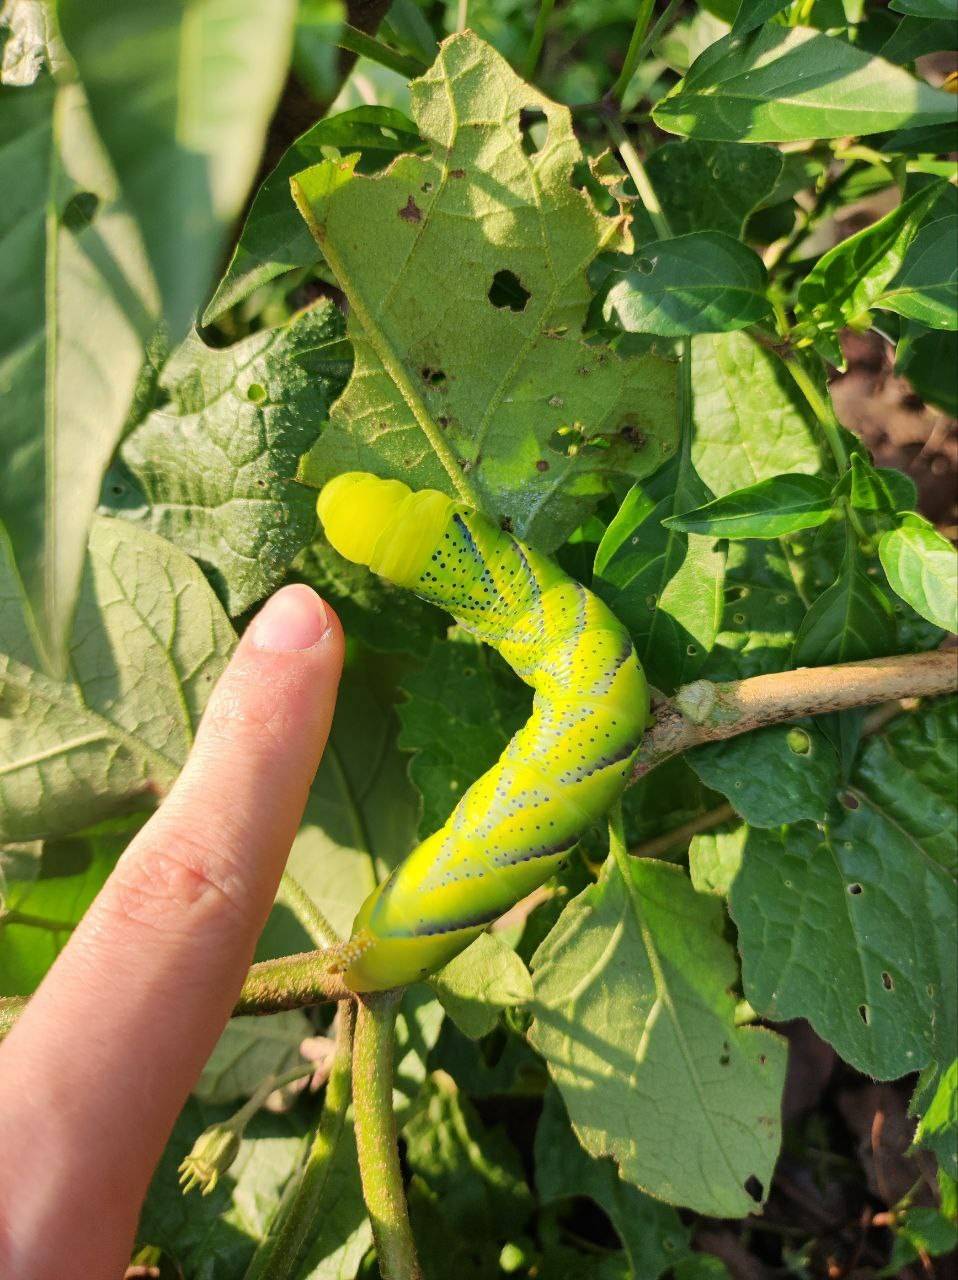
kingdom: Animalia
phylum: Arthropoda
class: Insecta
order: Lepidoptera
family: Sphingidae
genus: Acherontia
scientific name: Acherontia atropos
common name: Death's-head hawk moth
